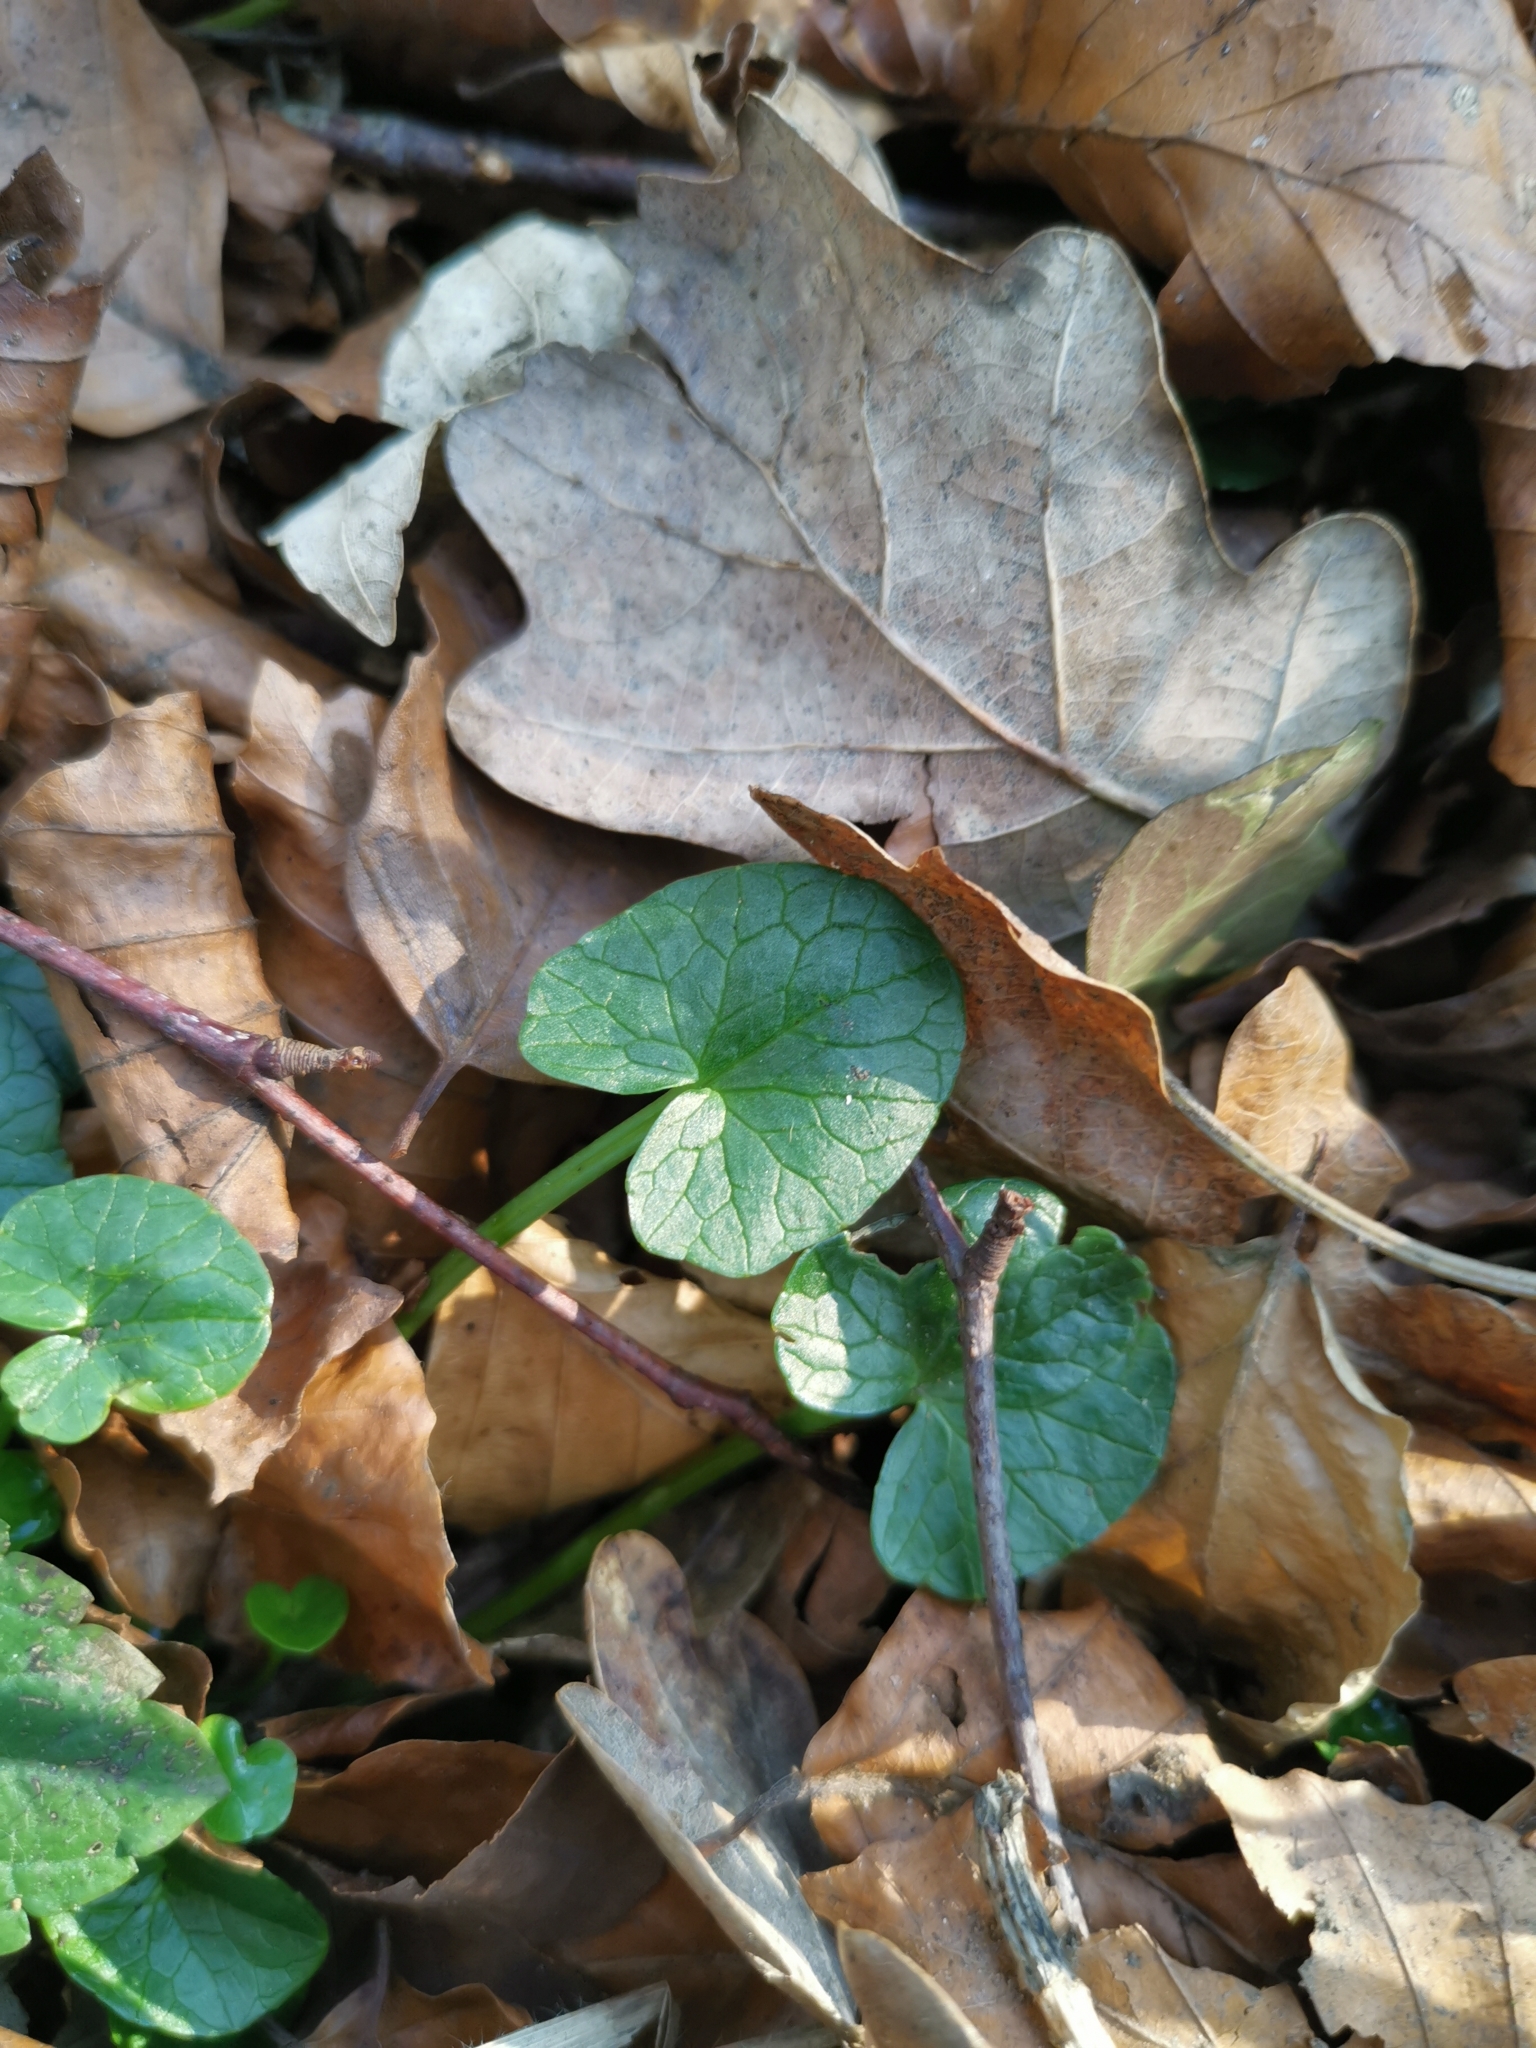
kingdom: Plantae
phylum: Tracheophyta
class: Magnoliopsida
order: Ranunculales
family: Ranunculaceae
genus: Ficaria
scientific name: Ficaria verna
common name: Lesser celandine
